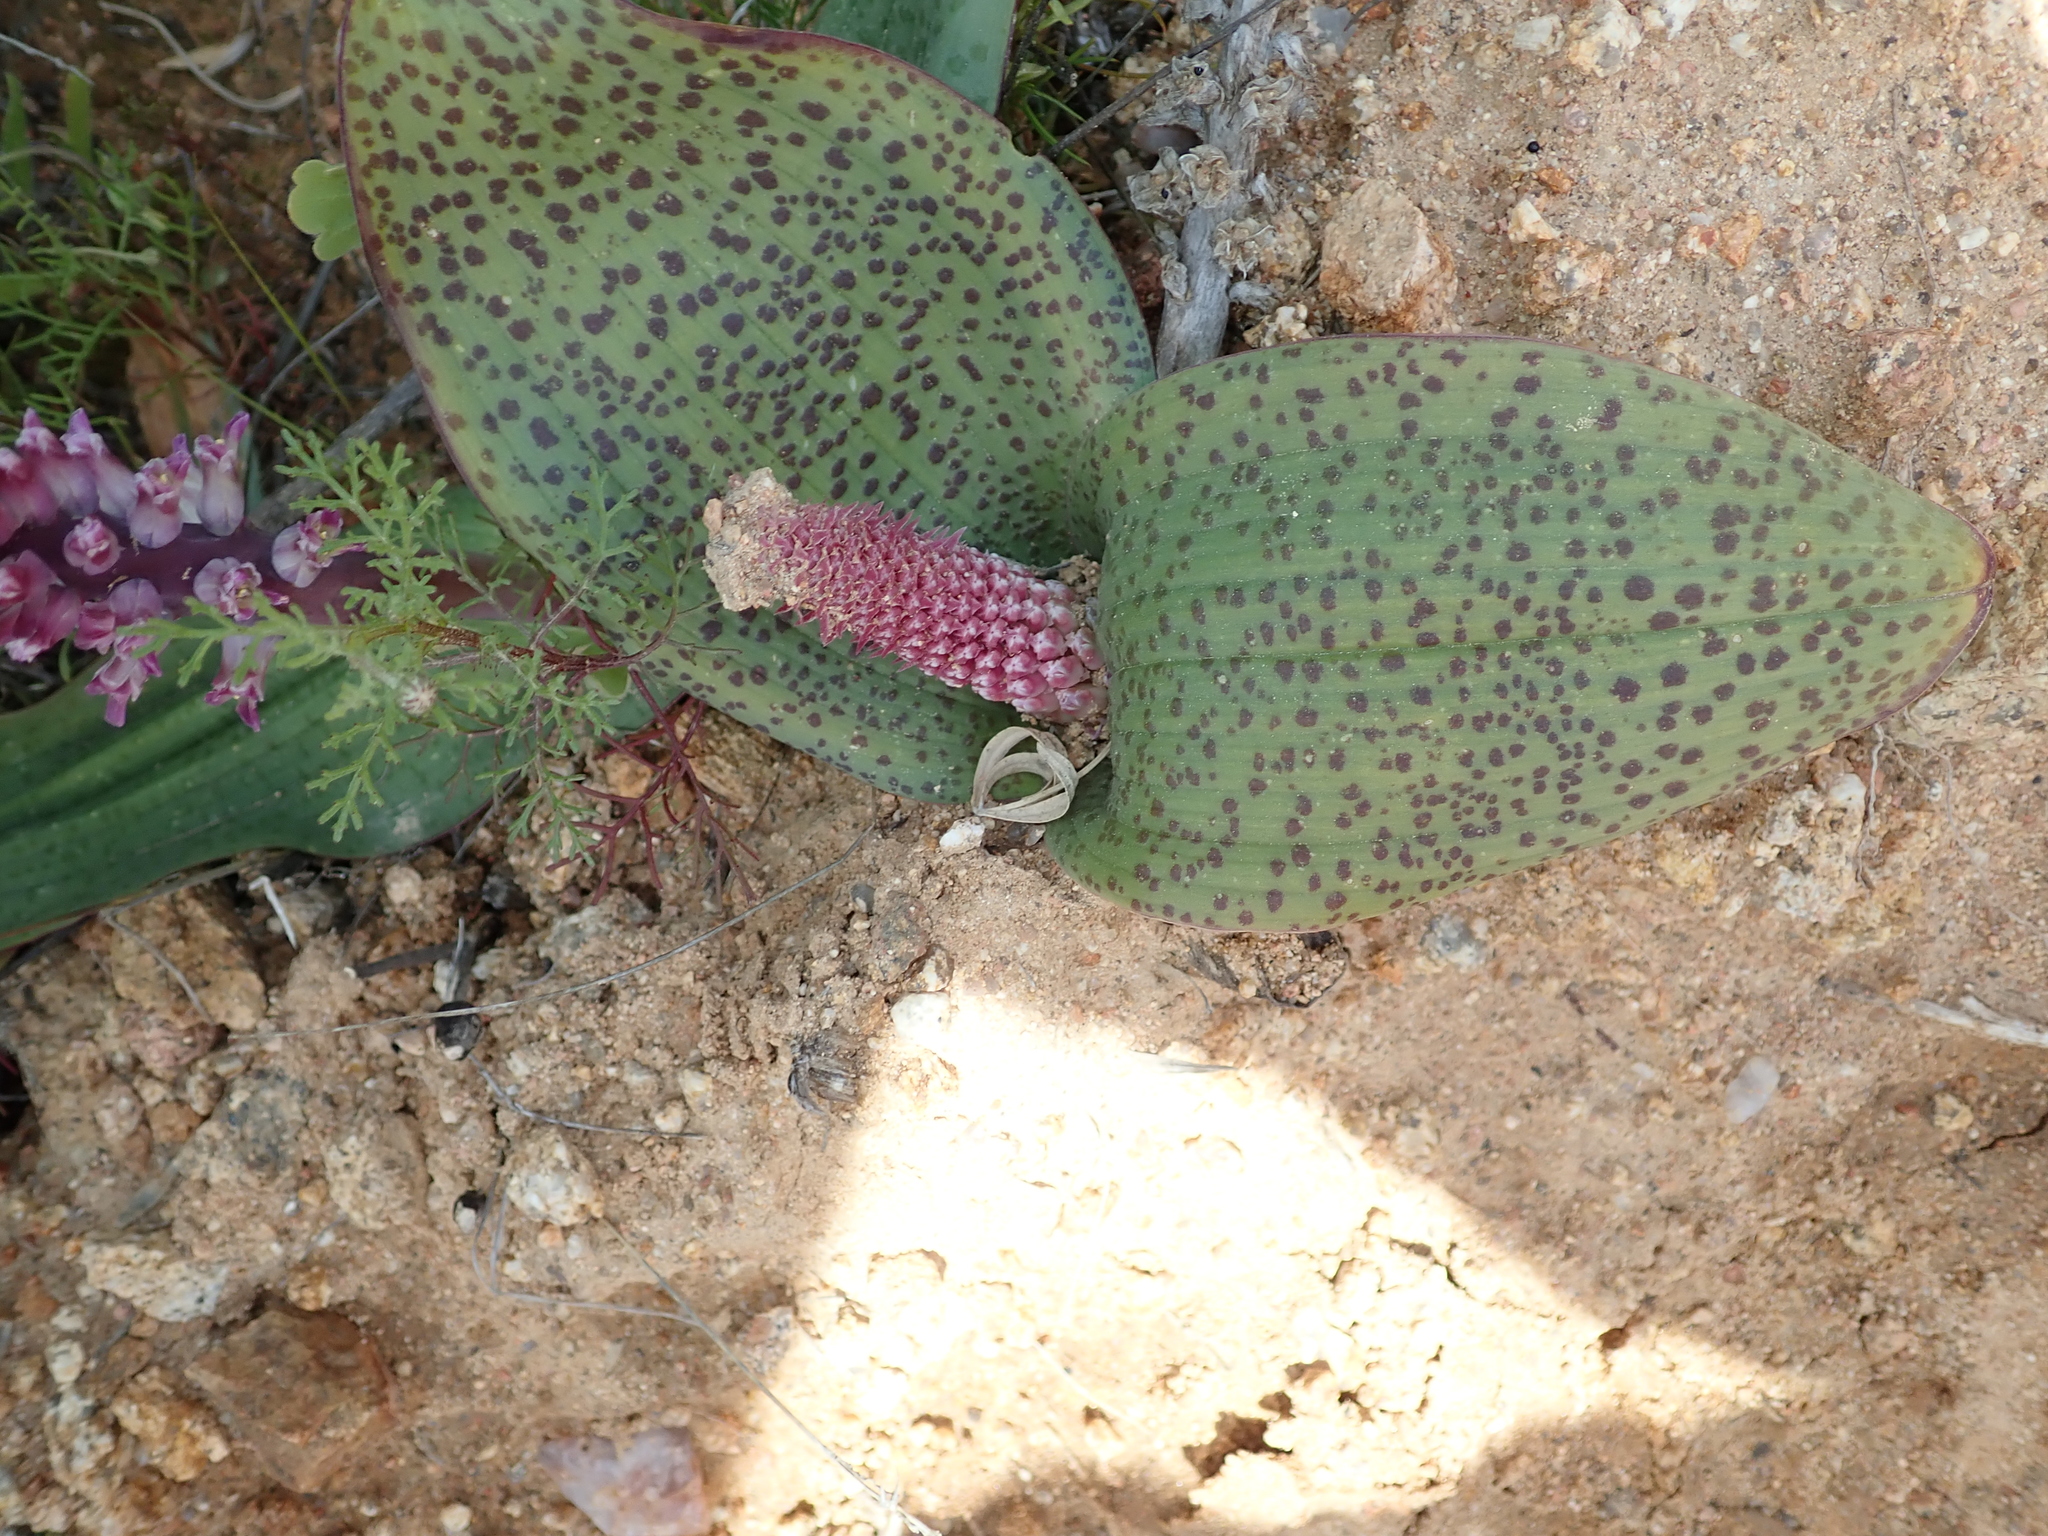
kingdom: Plantae
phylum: Tracheophyta
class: Liliopsida
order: Asparagales
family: Asparagaceae
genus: Lachenalia
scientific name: Lachenalia carnosa
